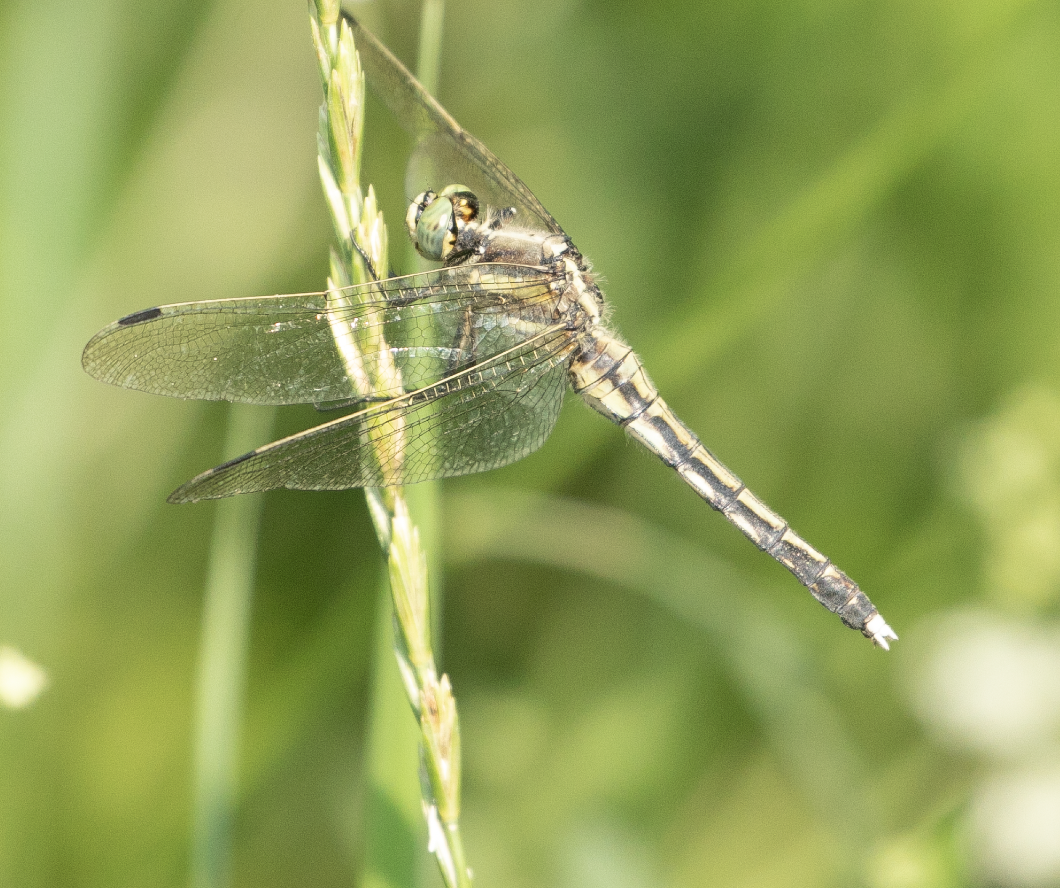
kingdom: Animalia
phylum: Arthropoda
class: Insecta
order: Odonata
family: Libellulidae
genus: Orthetrum
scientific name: Orthetrum albistylum
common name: White-tailed skimmer
